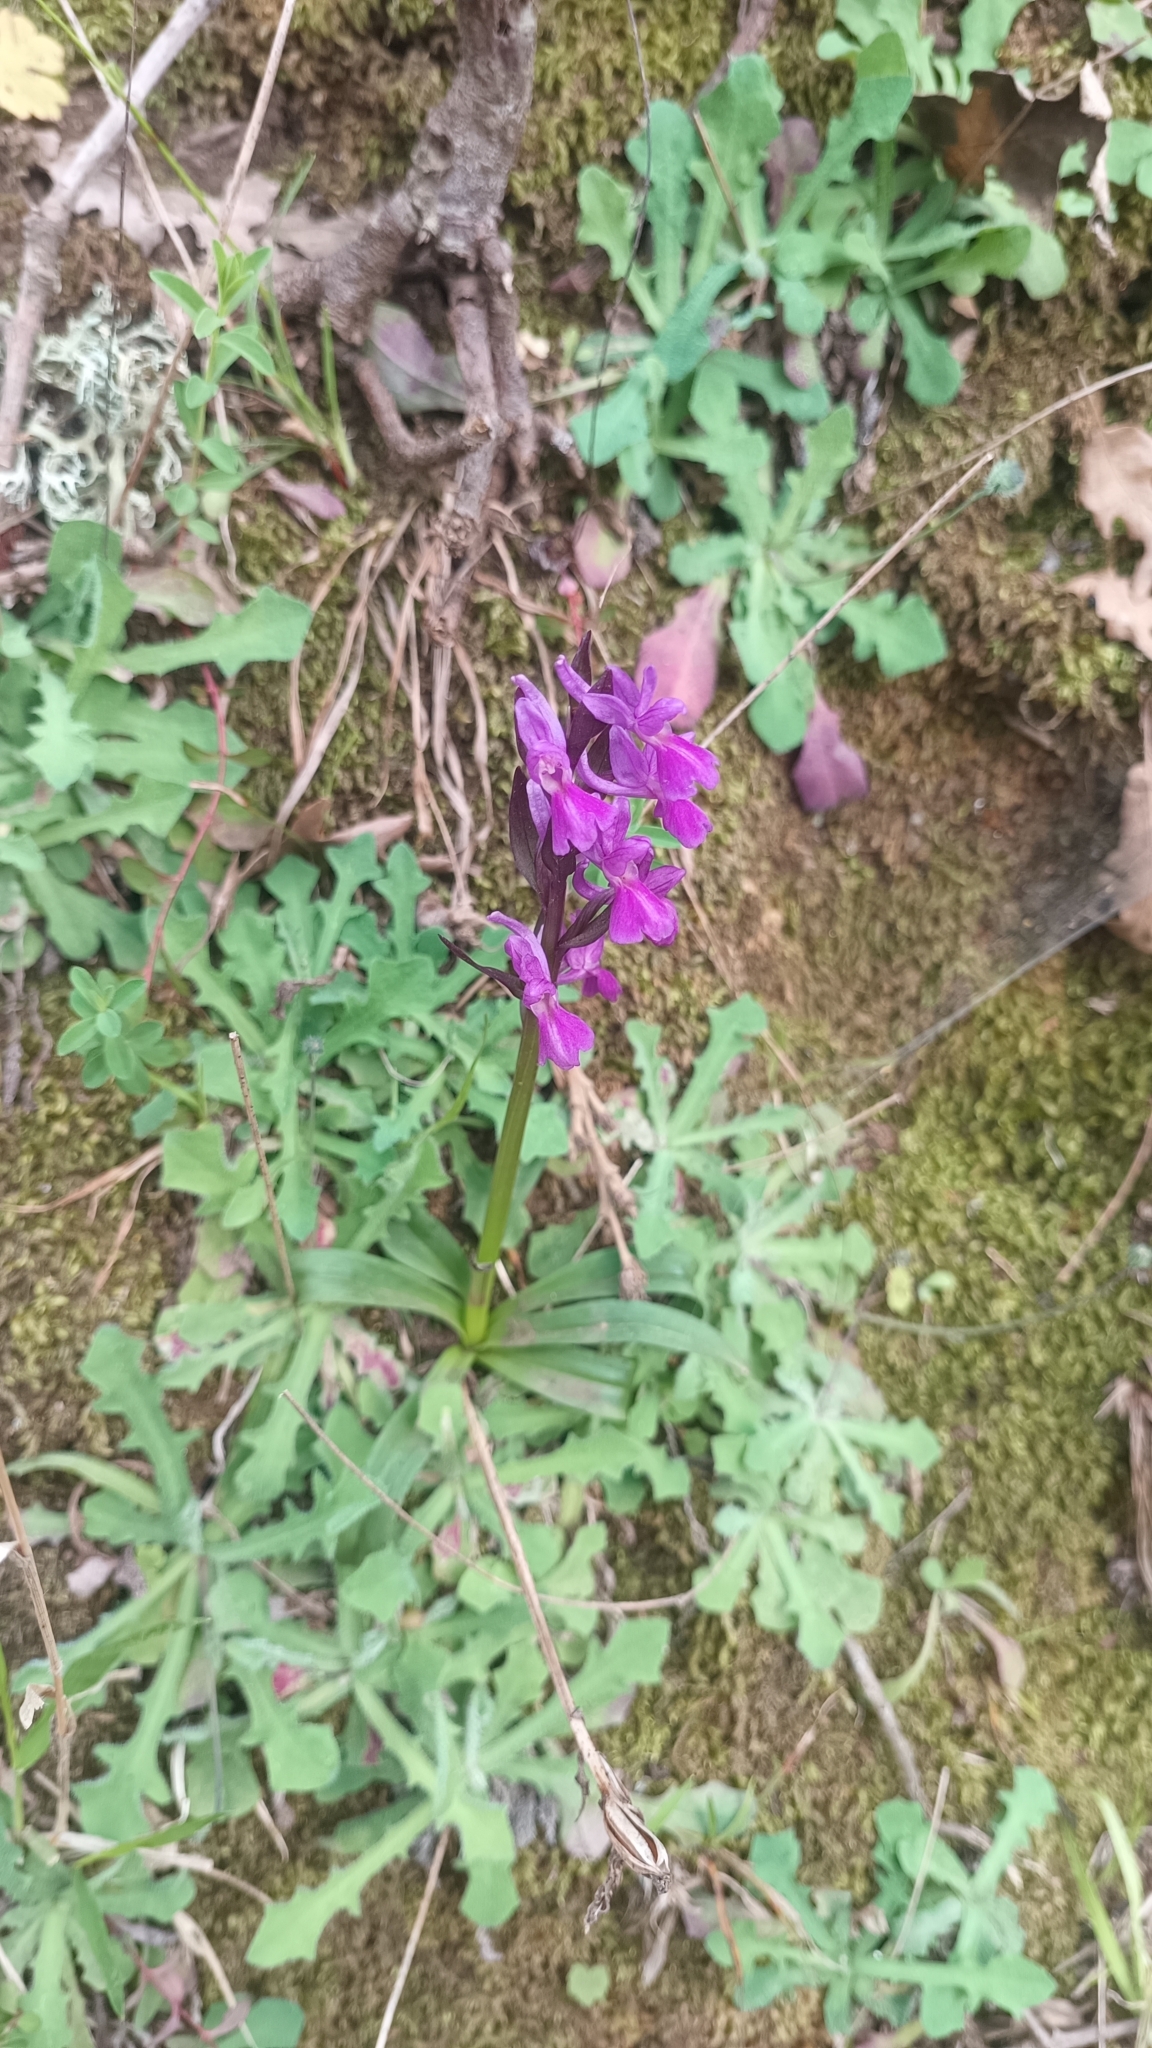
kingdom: Plantae
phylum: Tracheophyta
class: Liliopsida
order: Asparagales
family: Orchidaceae
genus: Dactylorhiza
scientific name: Dactylorhiza romana
